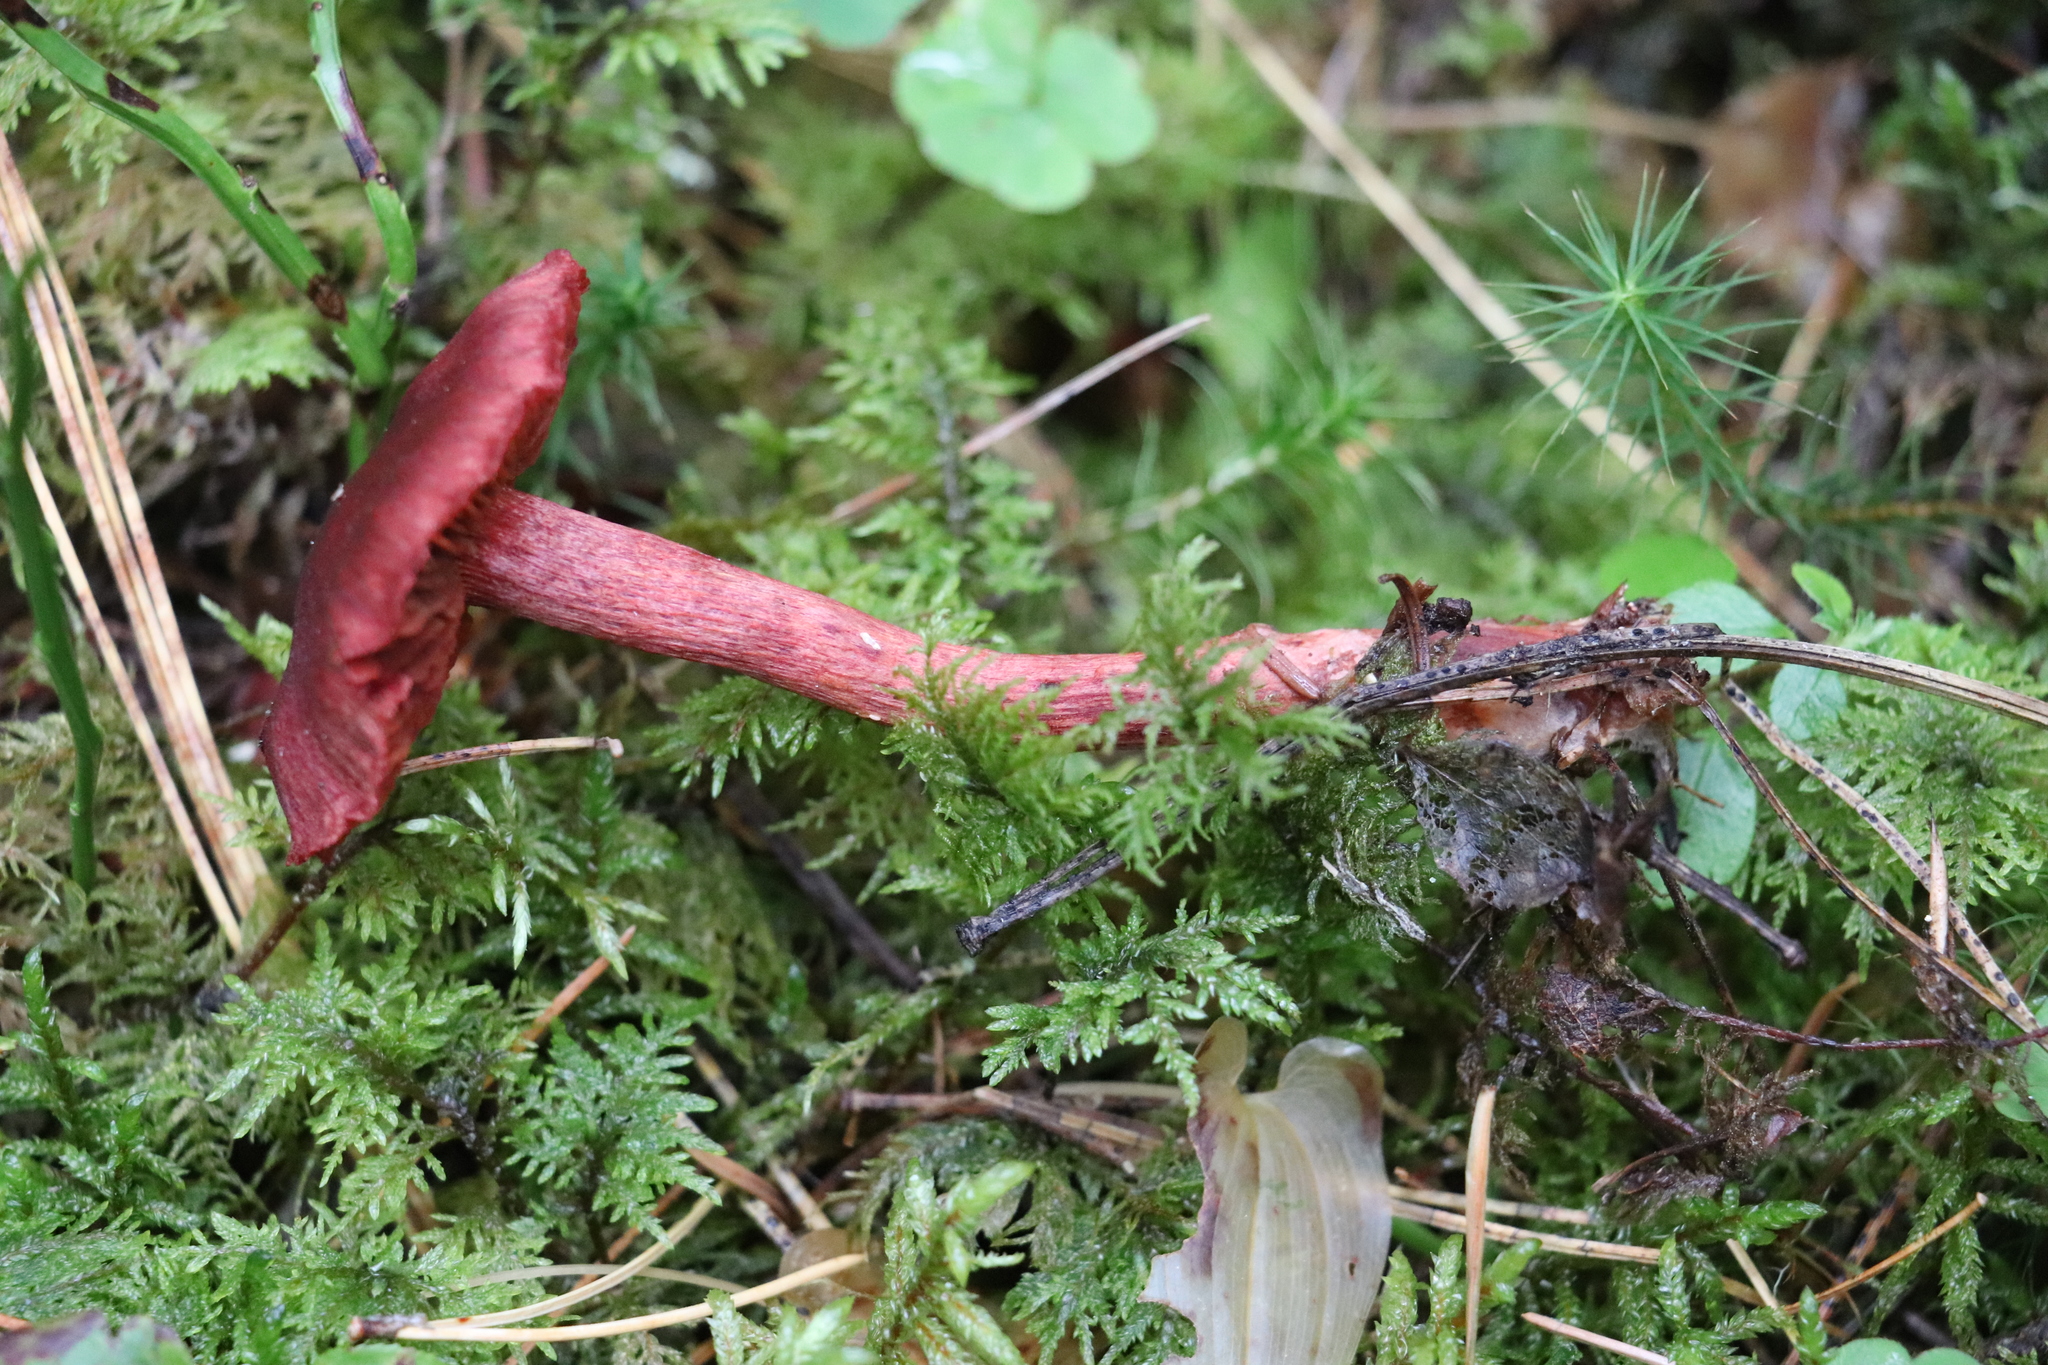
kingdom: Fungi
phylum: Basidiomycota
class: Agaricomycetes
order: Agaricales
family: Cortinariaceae
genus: Cortinarius
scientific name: Cortinarius sanguineus
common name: Bloodred webcap
